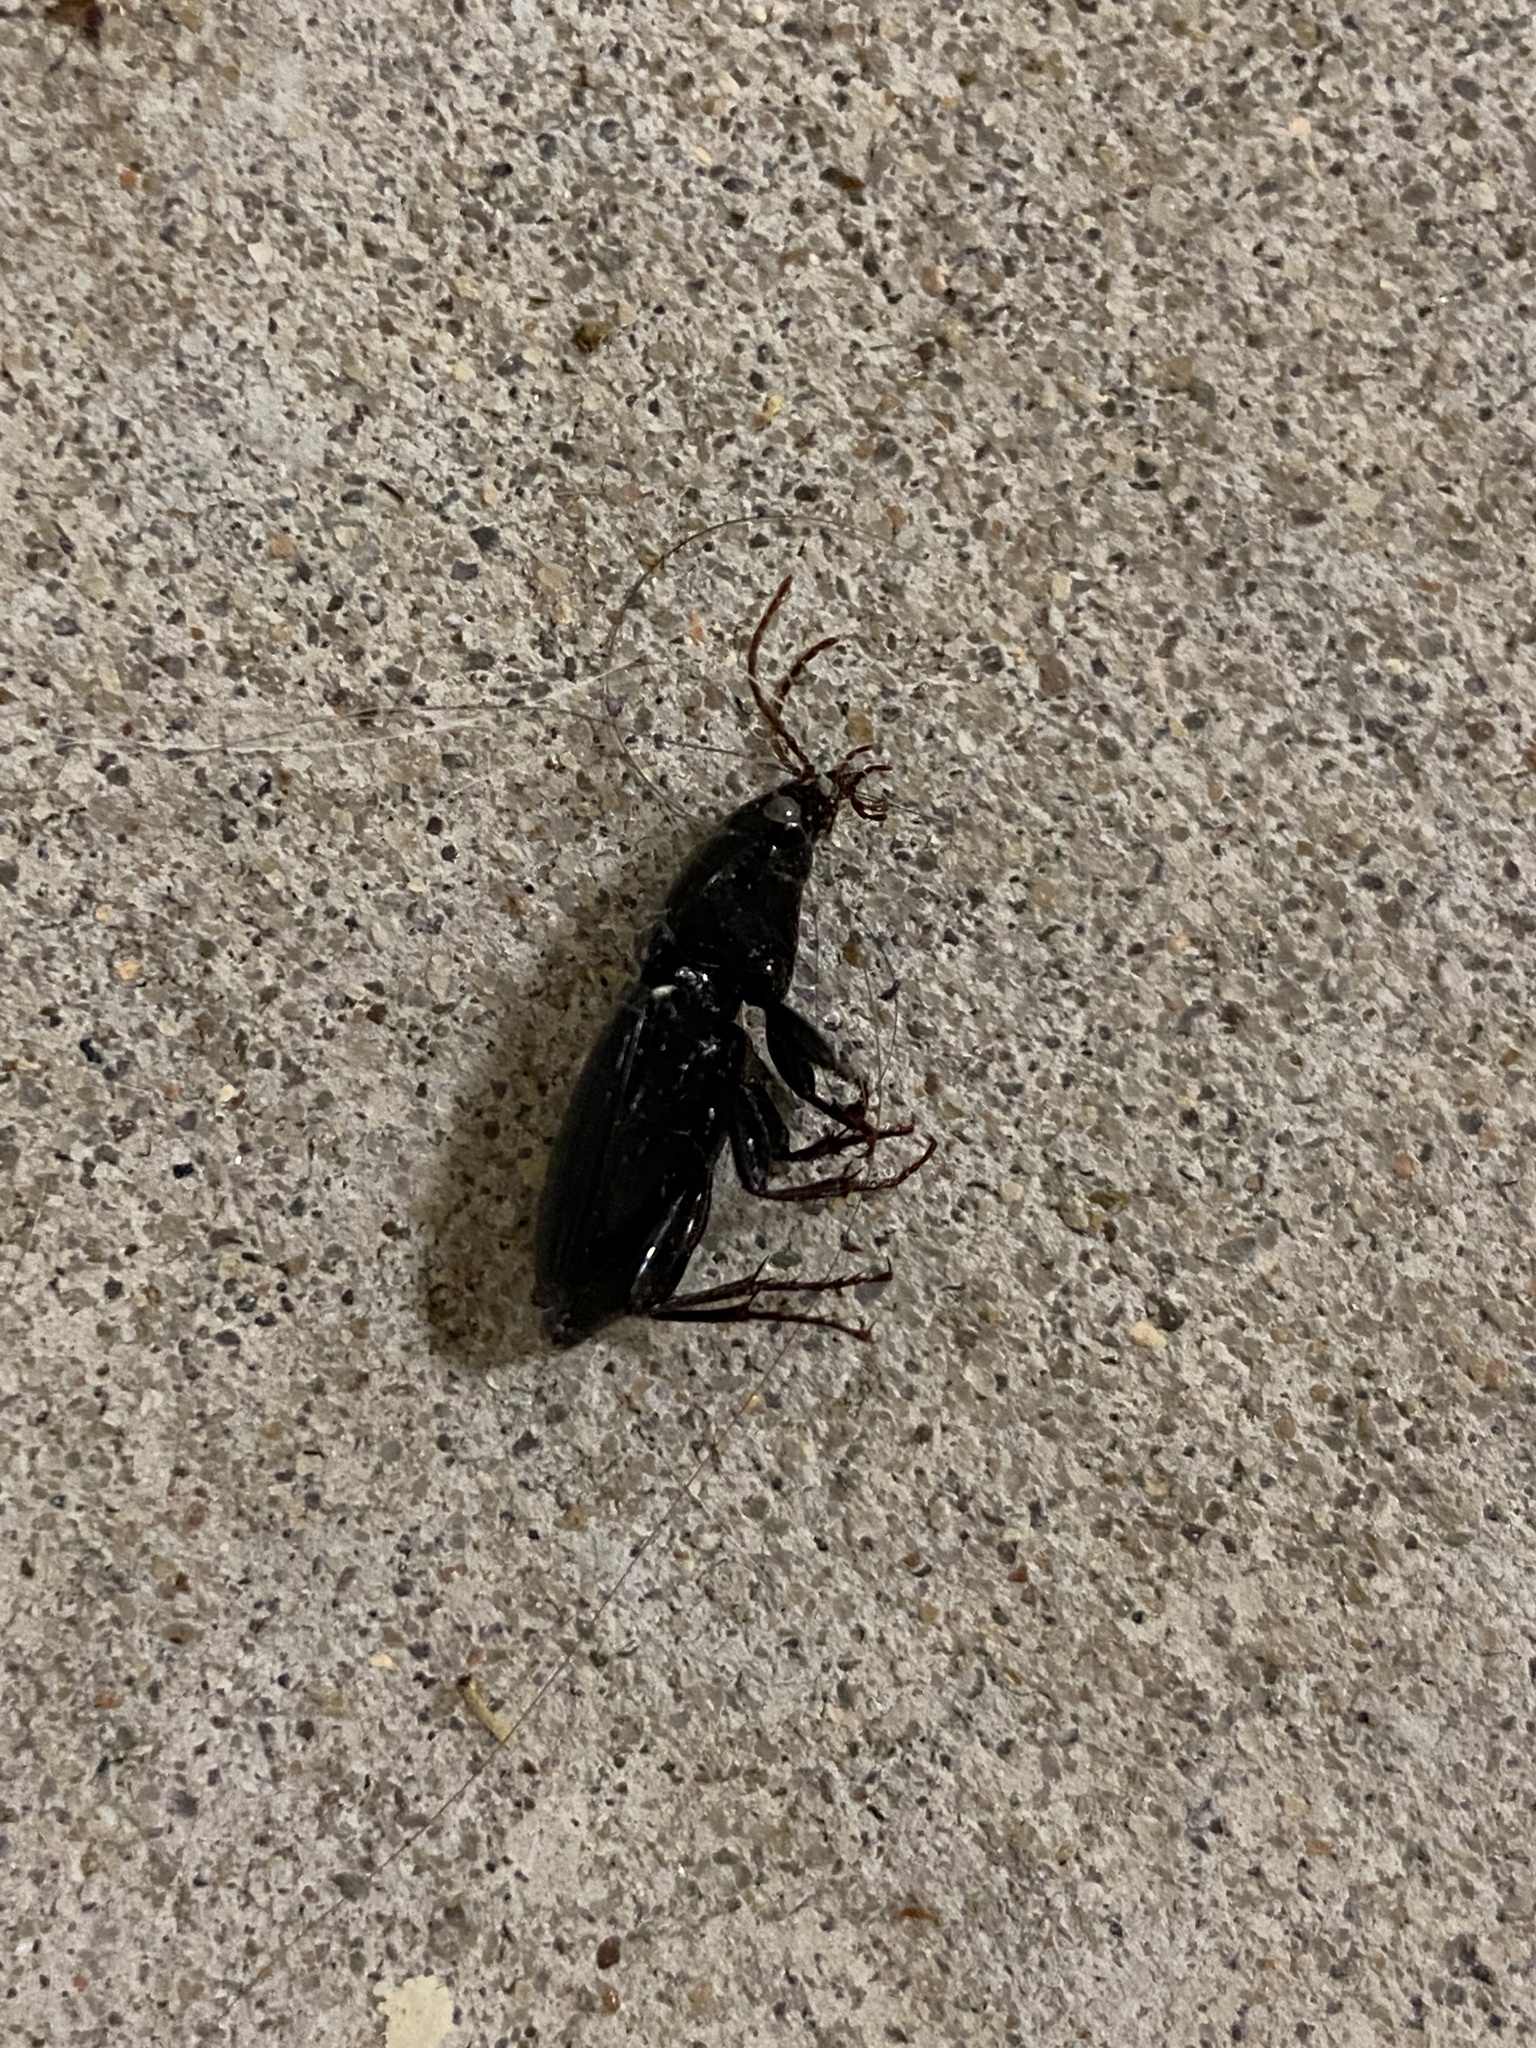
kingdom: Animalia
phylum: Arthropoda
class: Insecta
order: Coleoptera
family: Carabidae
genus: Abacidus
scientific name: Abacidus
